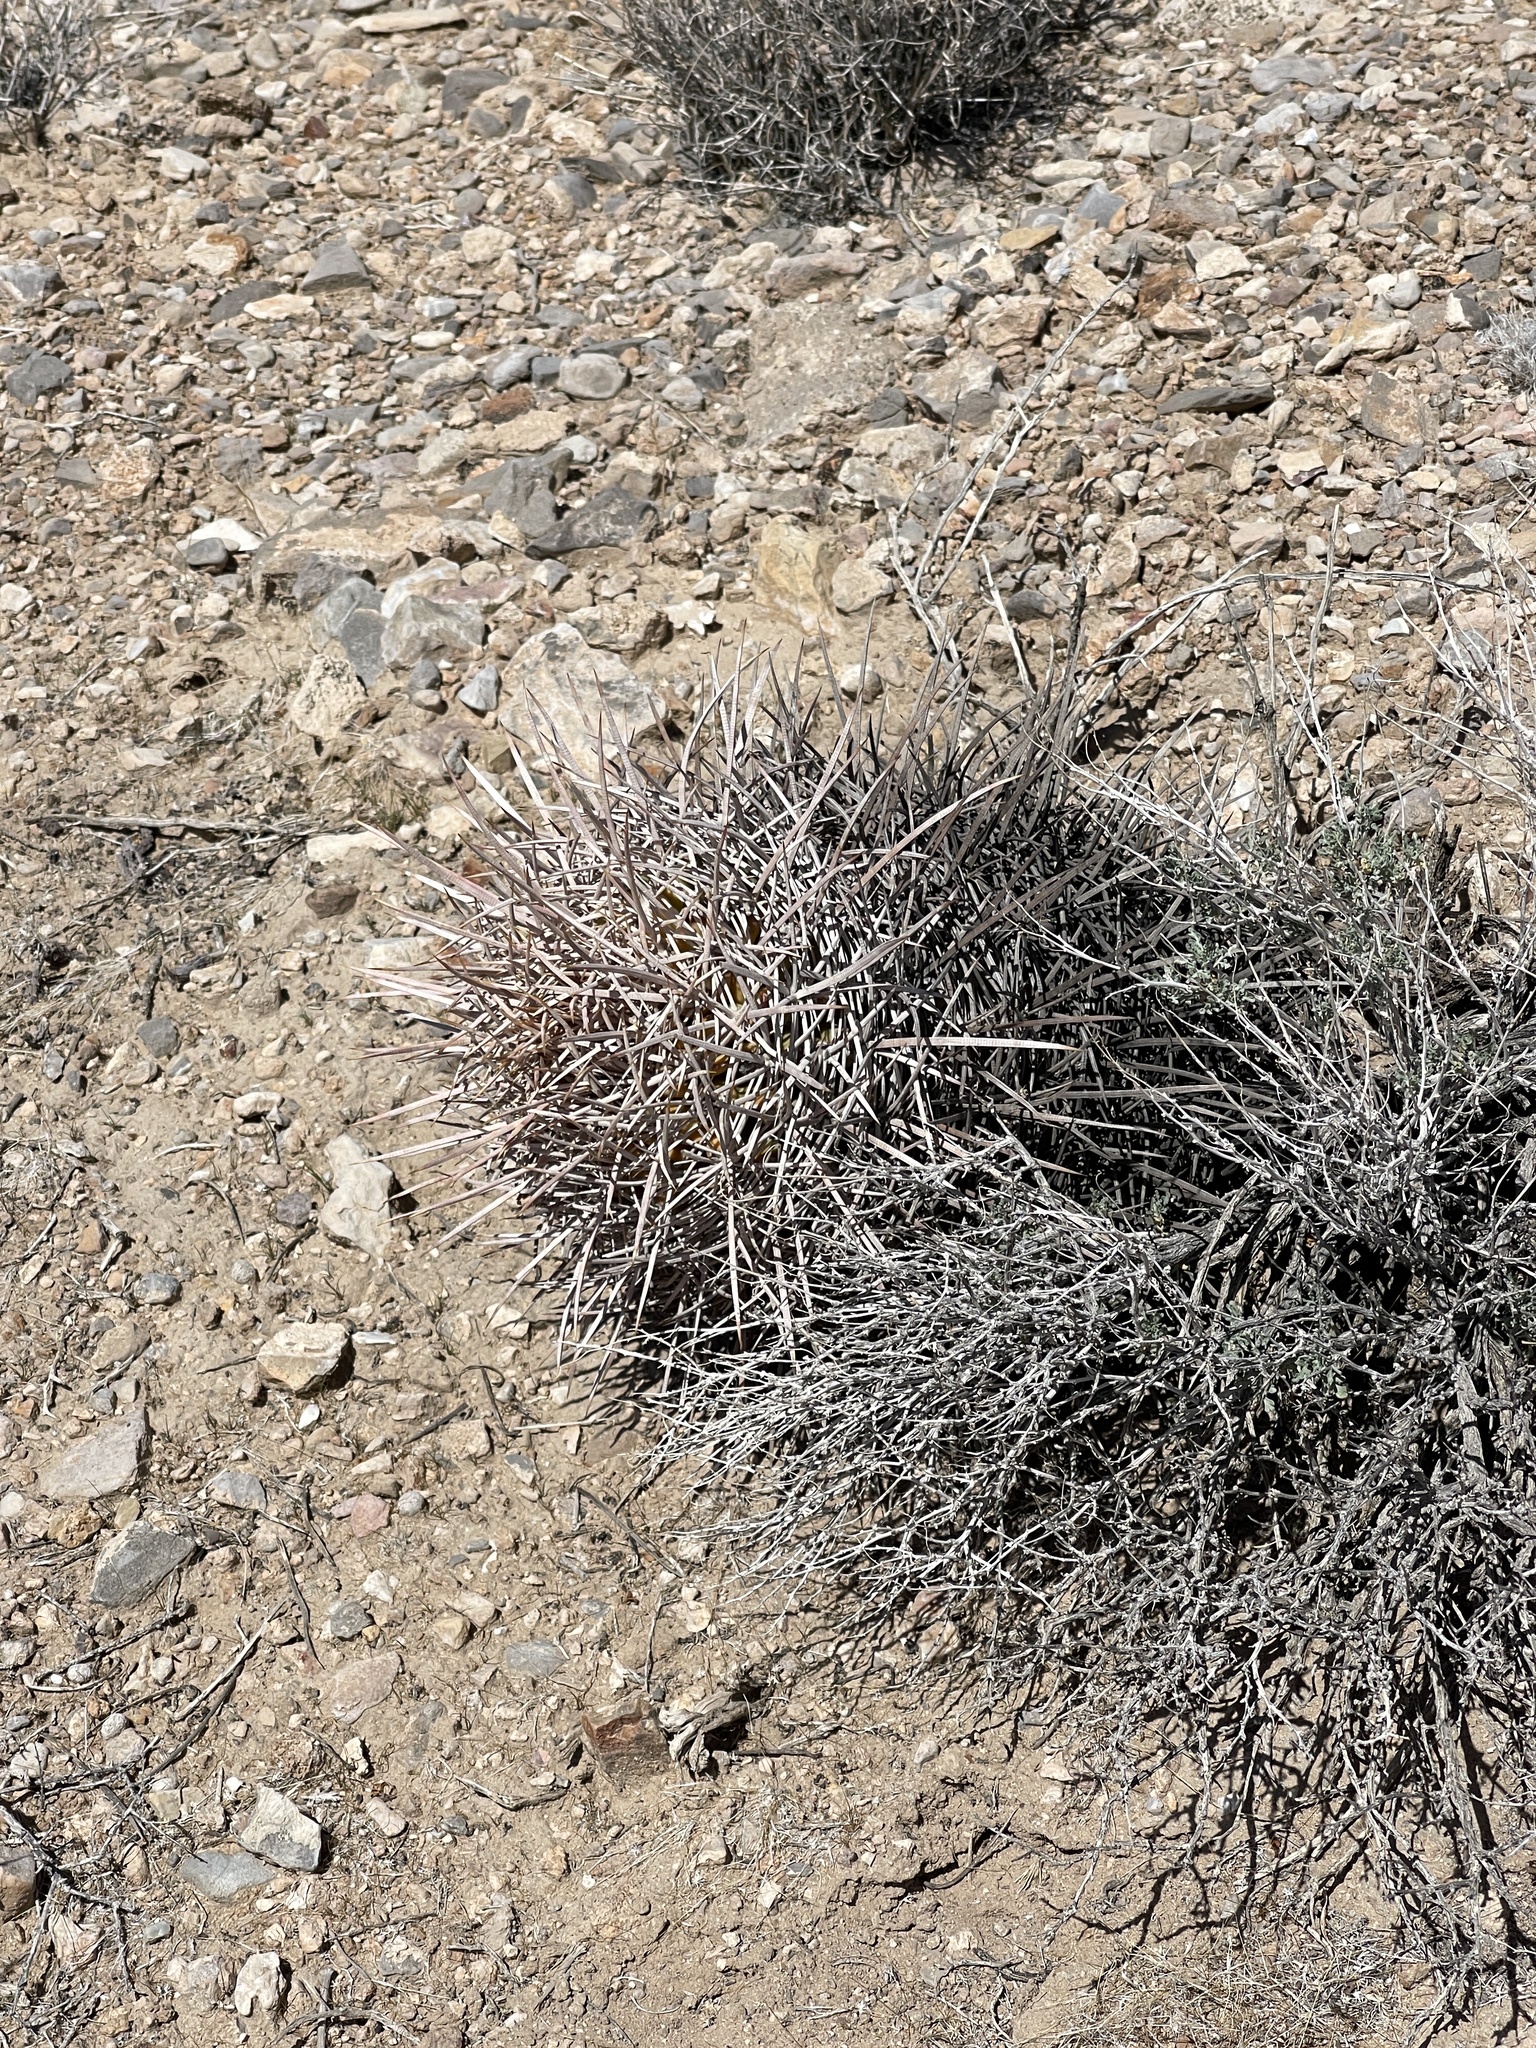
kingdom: Plantae
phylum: Tracheophyta
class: Magnoliopsida
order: Caryophyllales
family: Cactaceae
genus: Echinocactus
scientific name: Echinocactus polycephalus
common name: Cottontop cactus
